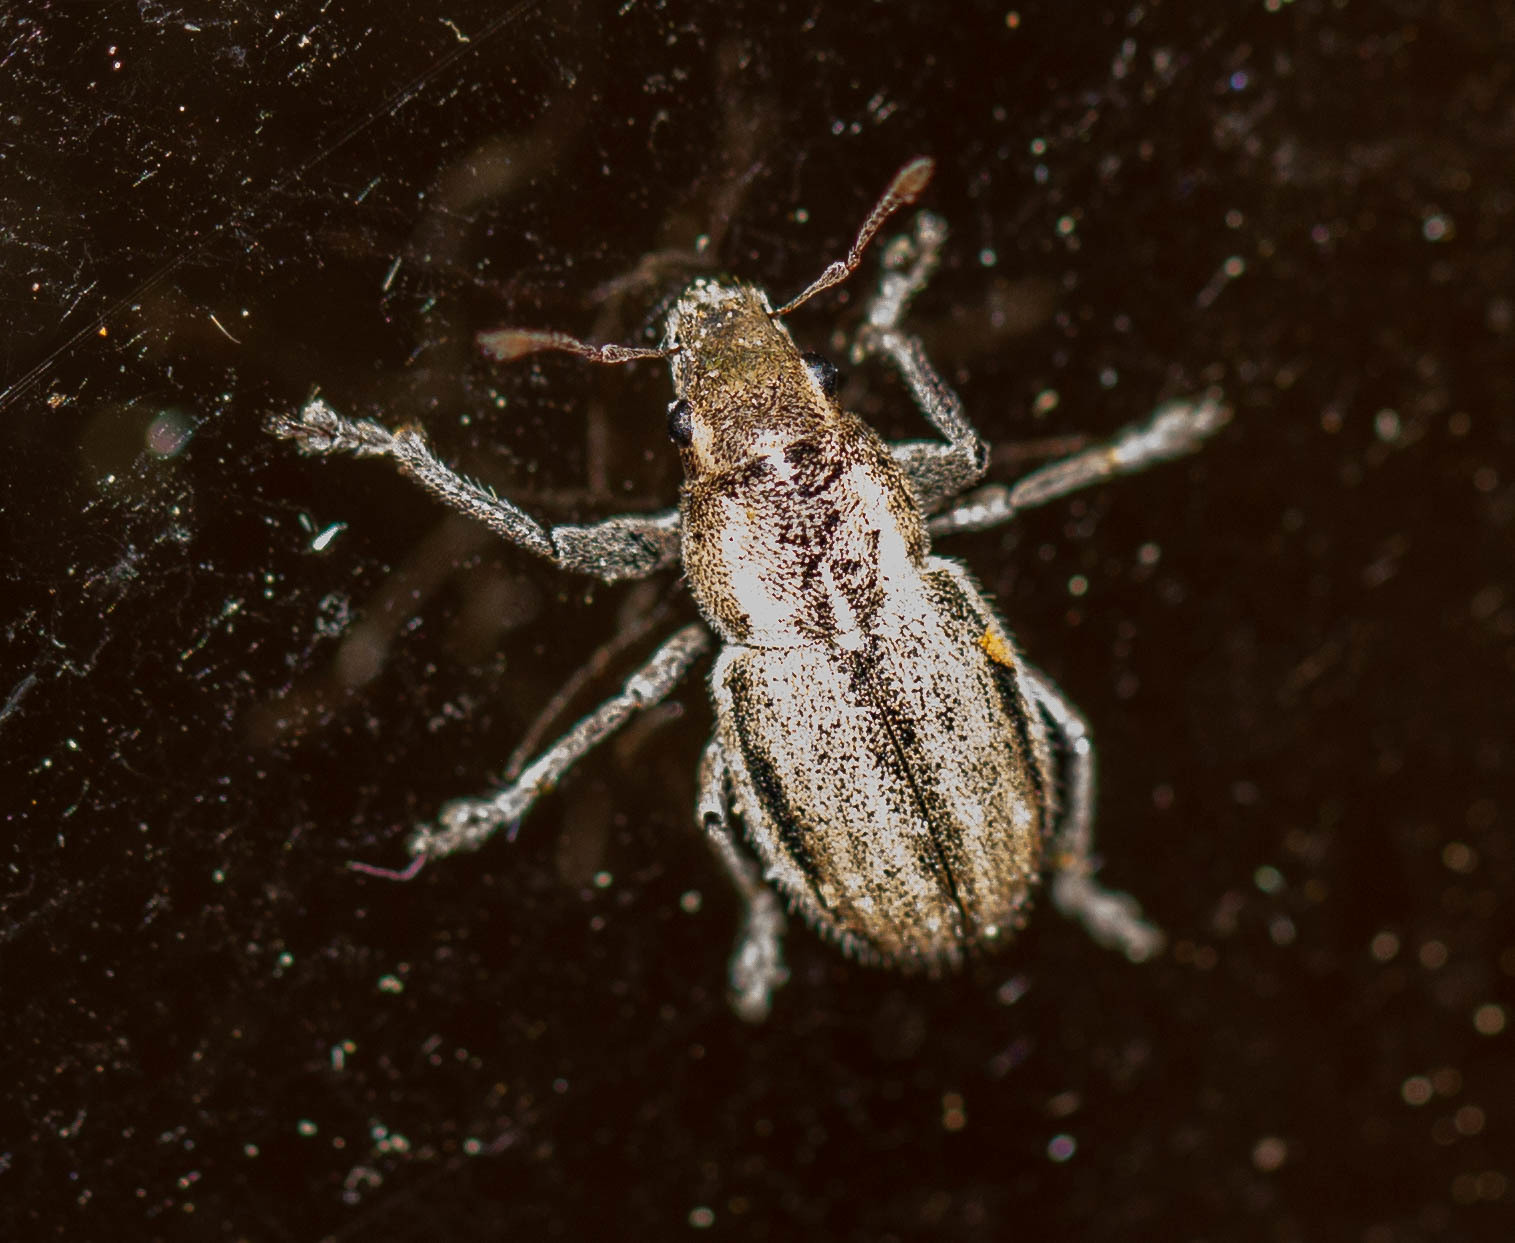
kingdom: Animalia
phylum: Arthropoda
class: Insecta
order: Coleoptera
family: Curculionidae
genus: Naupactus
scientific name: Naupactus leucoloma
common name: Whitefringed beetle
